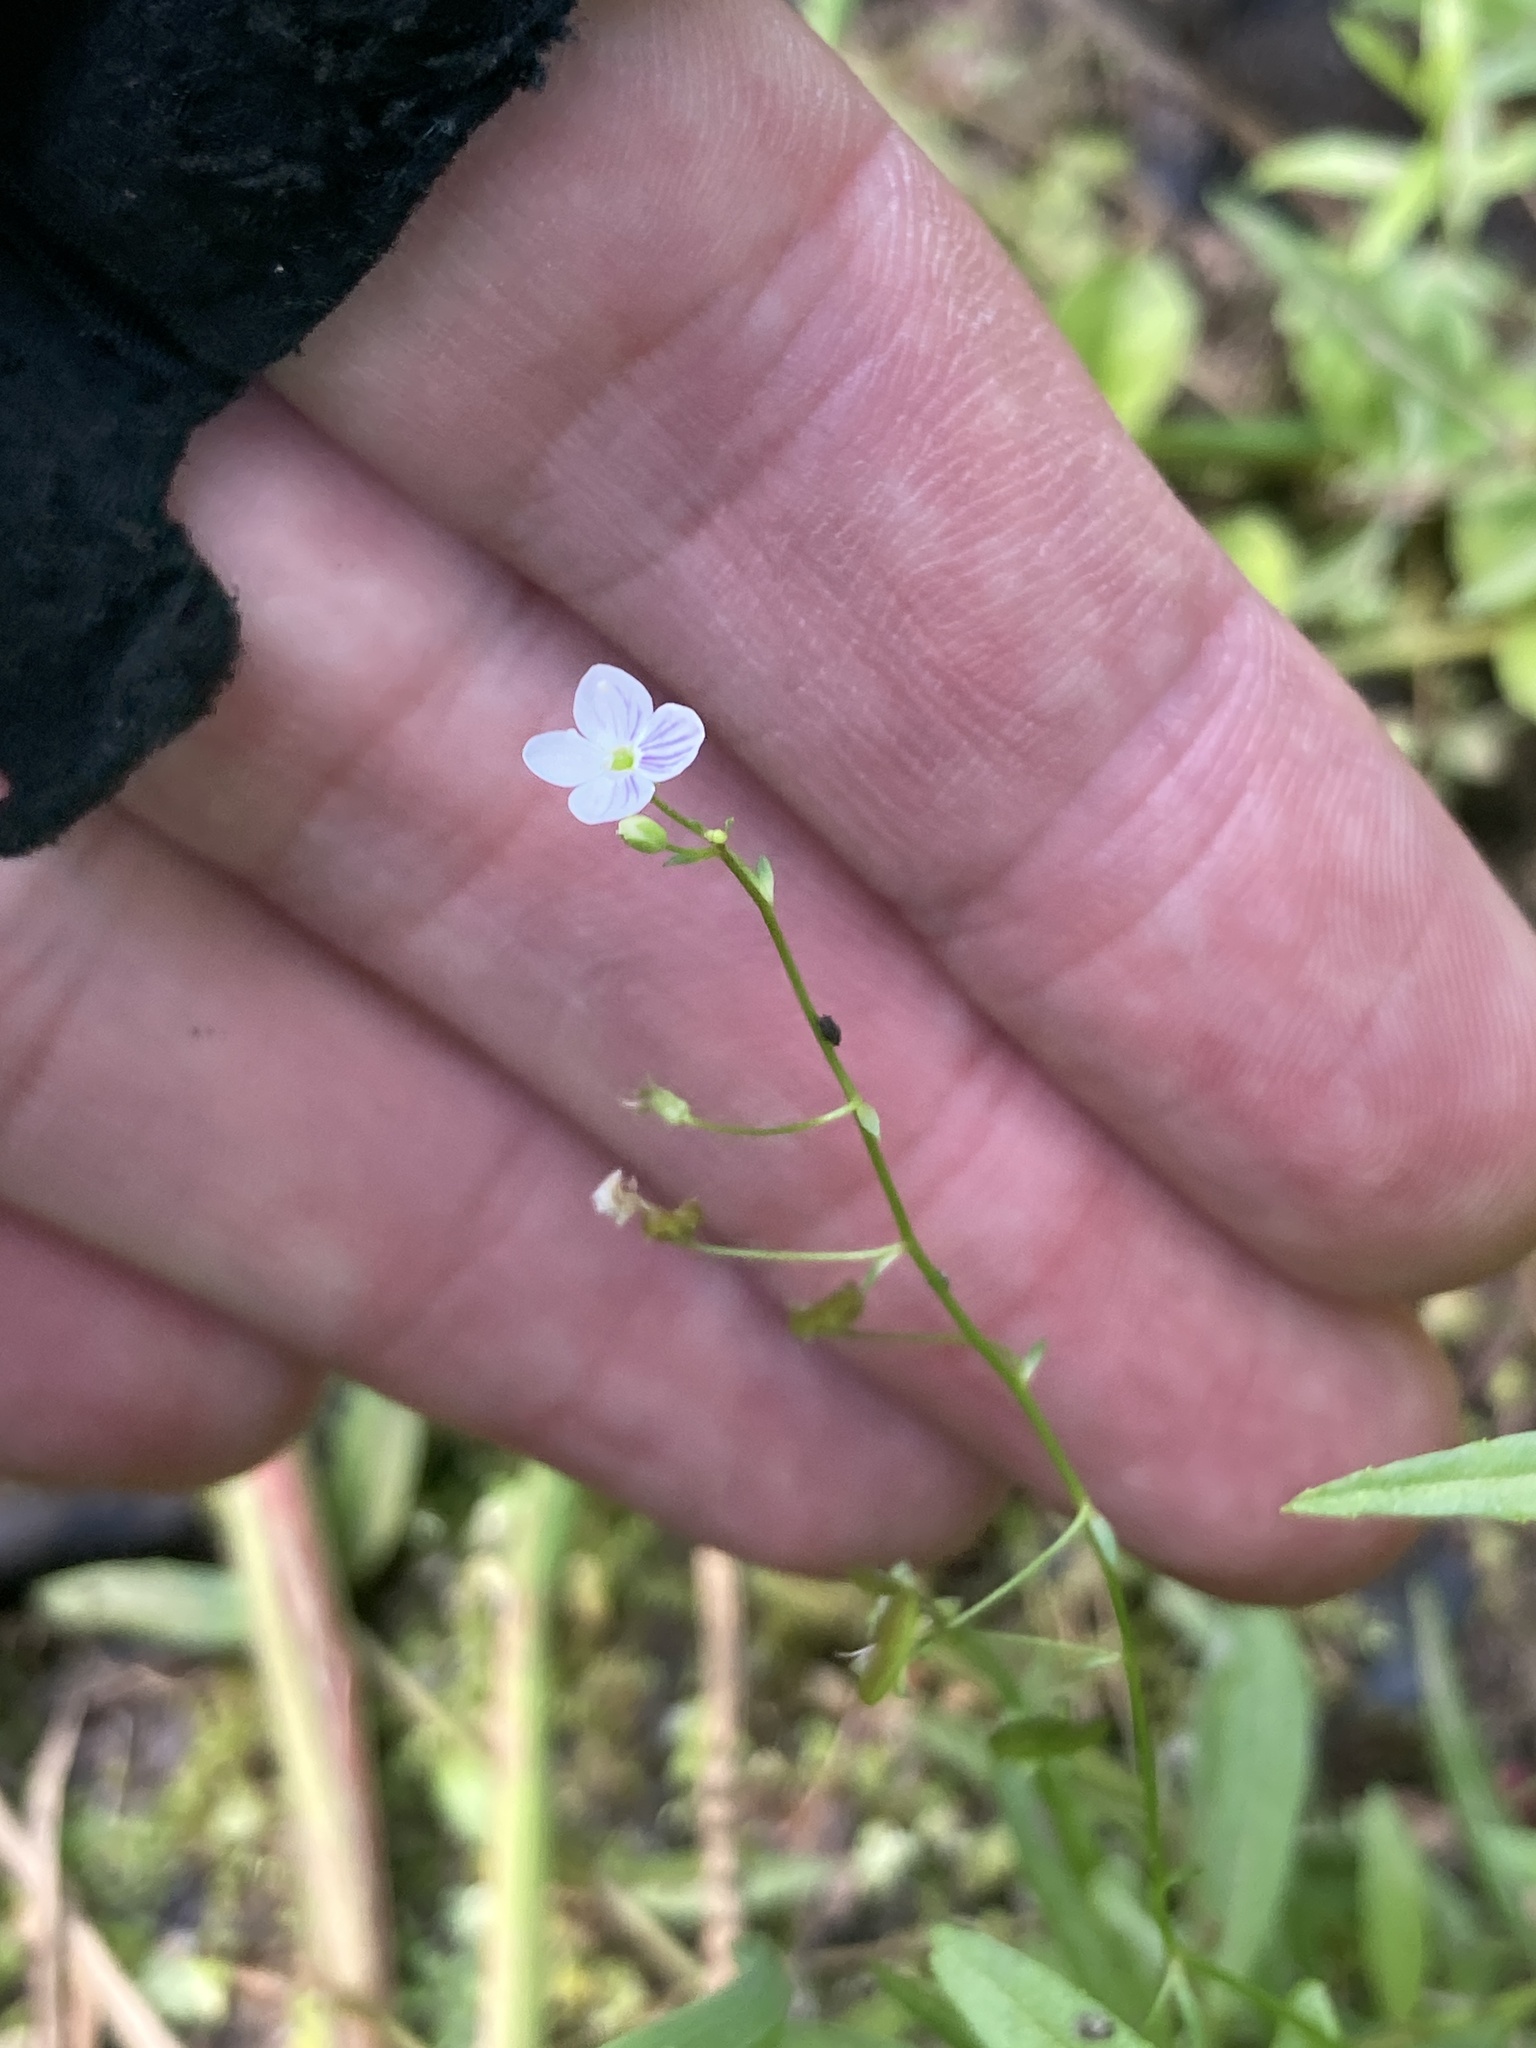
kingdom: Plantae
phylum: Tracheophyta
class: Magnoliopsida
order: Lamiales
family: Plantaginaceae
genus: Veronica
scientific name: Veronica scutellata
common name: Marsh speedwell
